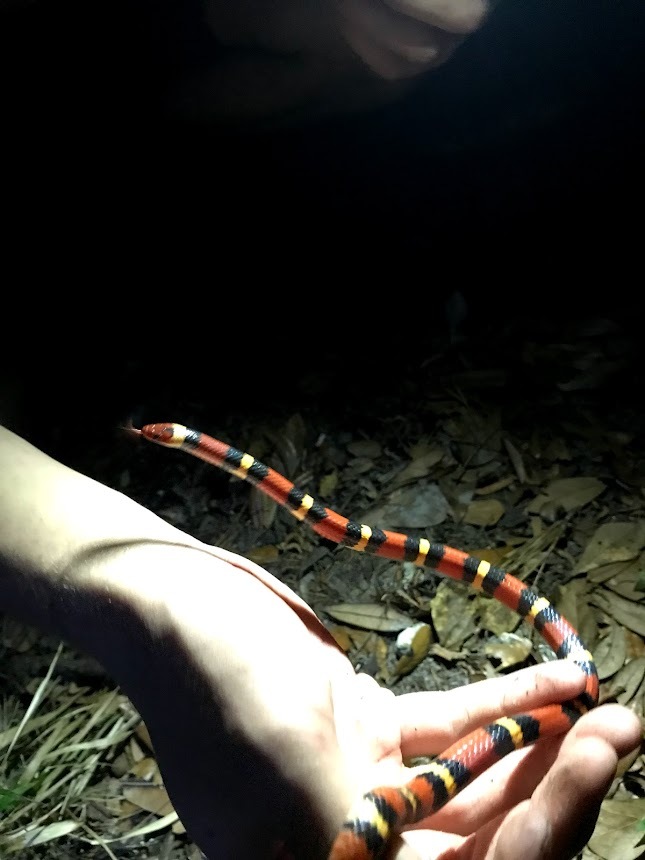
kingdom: Animalia
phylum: Chordata
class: Squamata
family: Colubridae
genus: Lampropeltis
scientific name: Lampropeltis elapsoides
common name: Scarlet kingsnake
